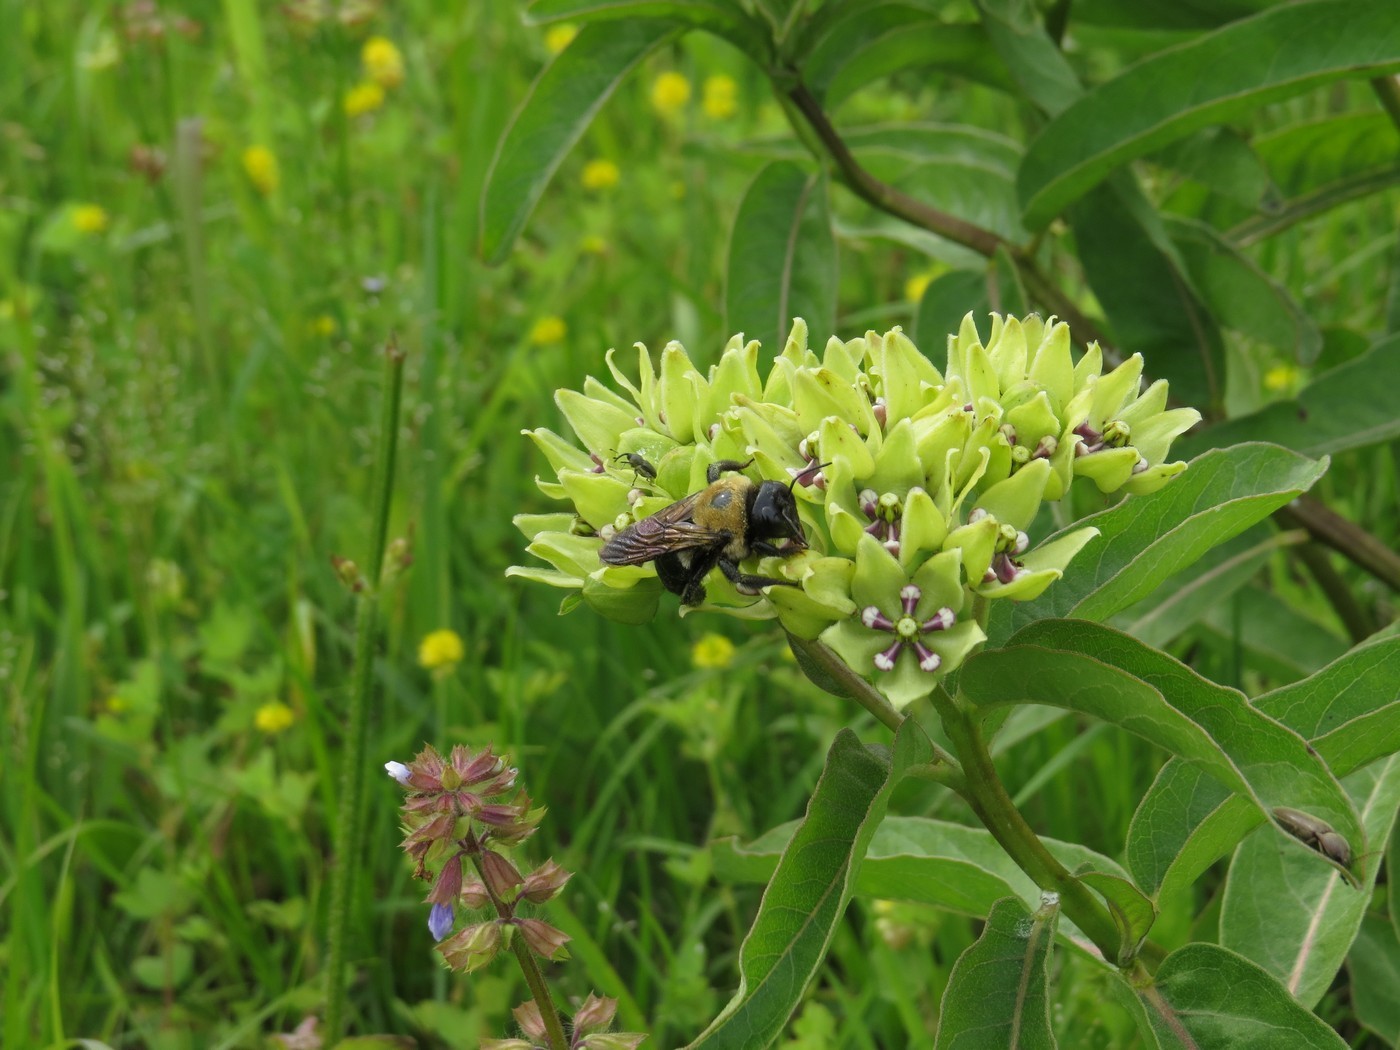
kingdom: Animalia
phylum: Arthropoda
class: Insecta
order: Hymenoptera
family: Apidae
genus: Xylocopa
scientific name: Xylocopa virginica
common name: Carpenter bee
